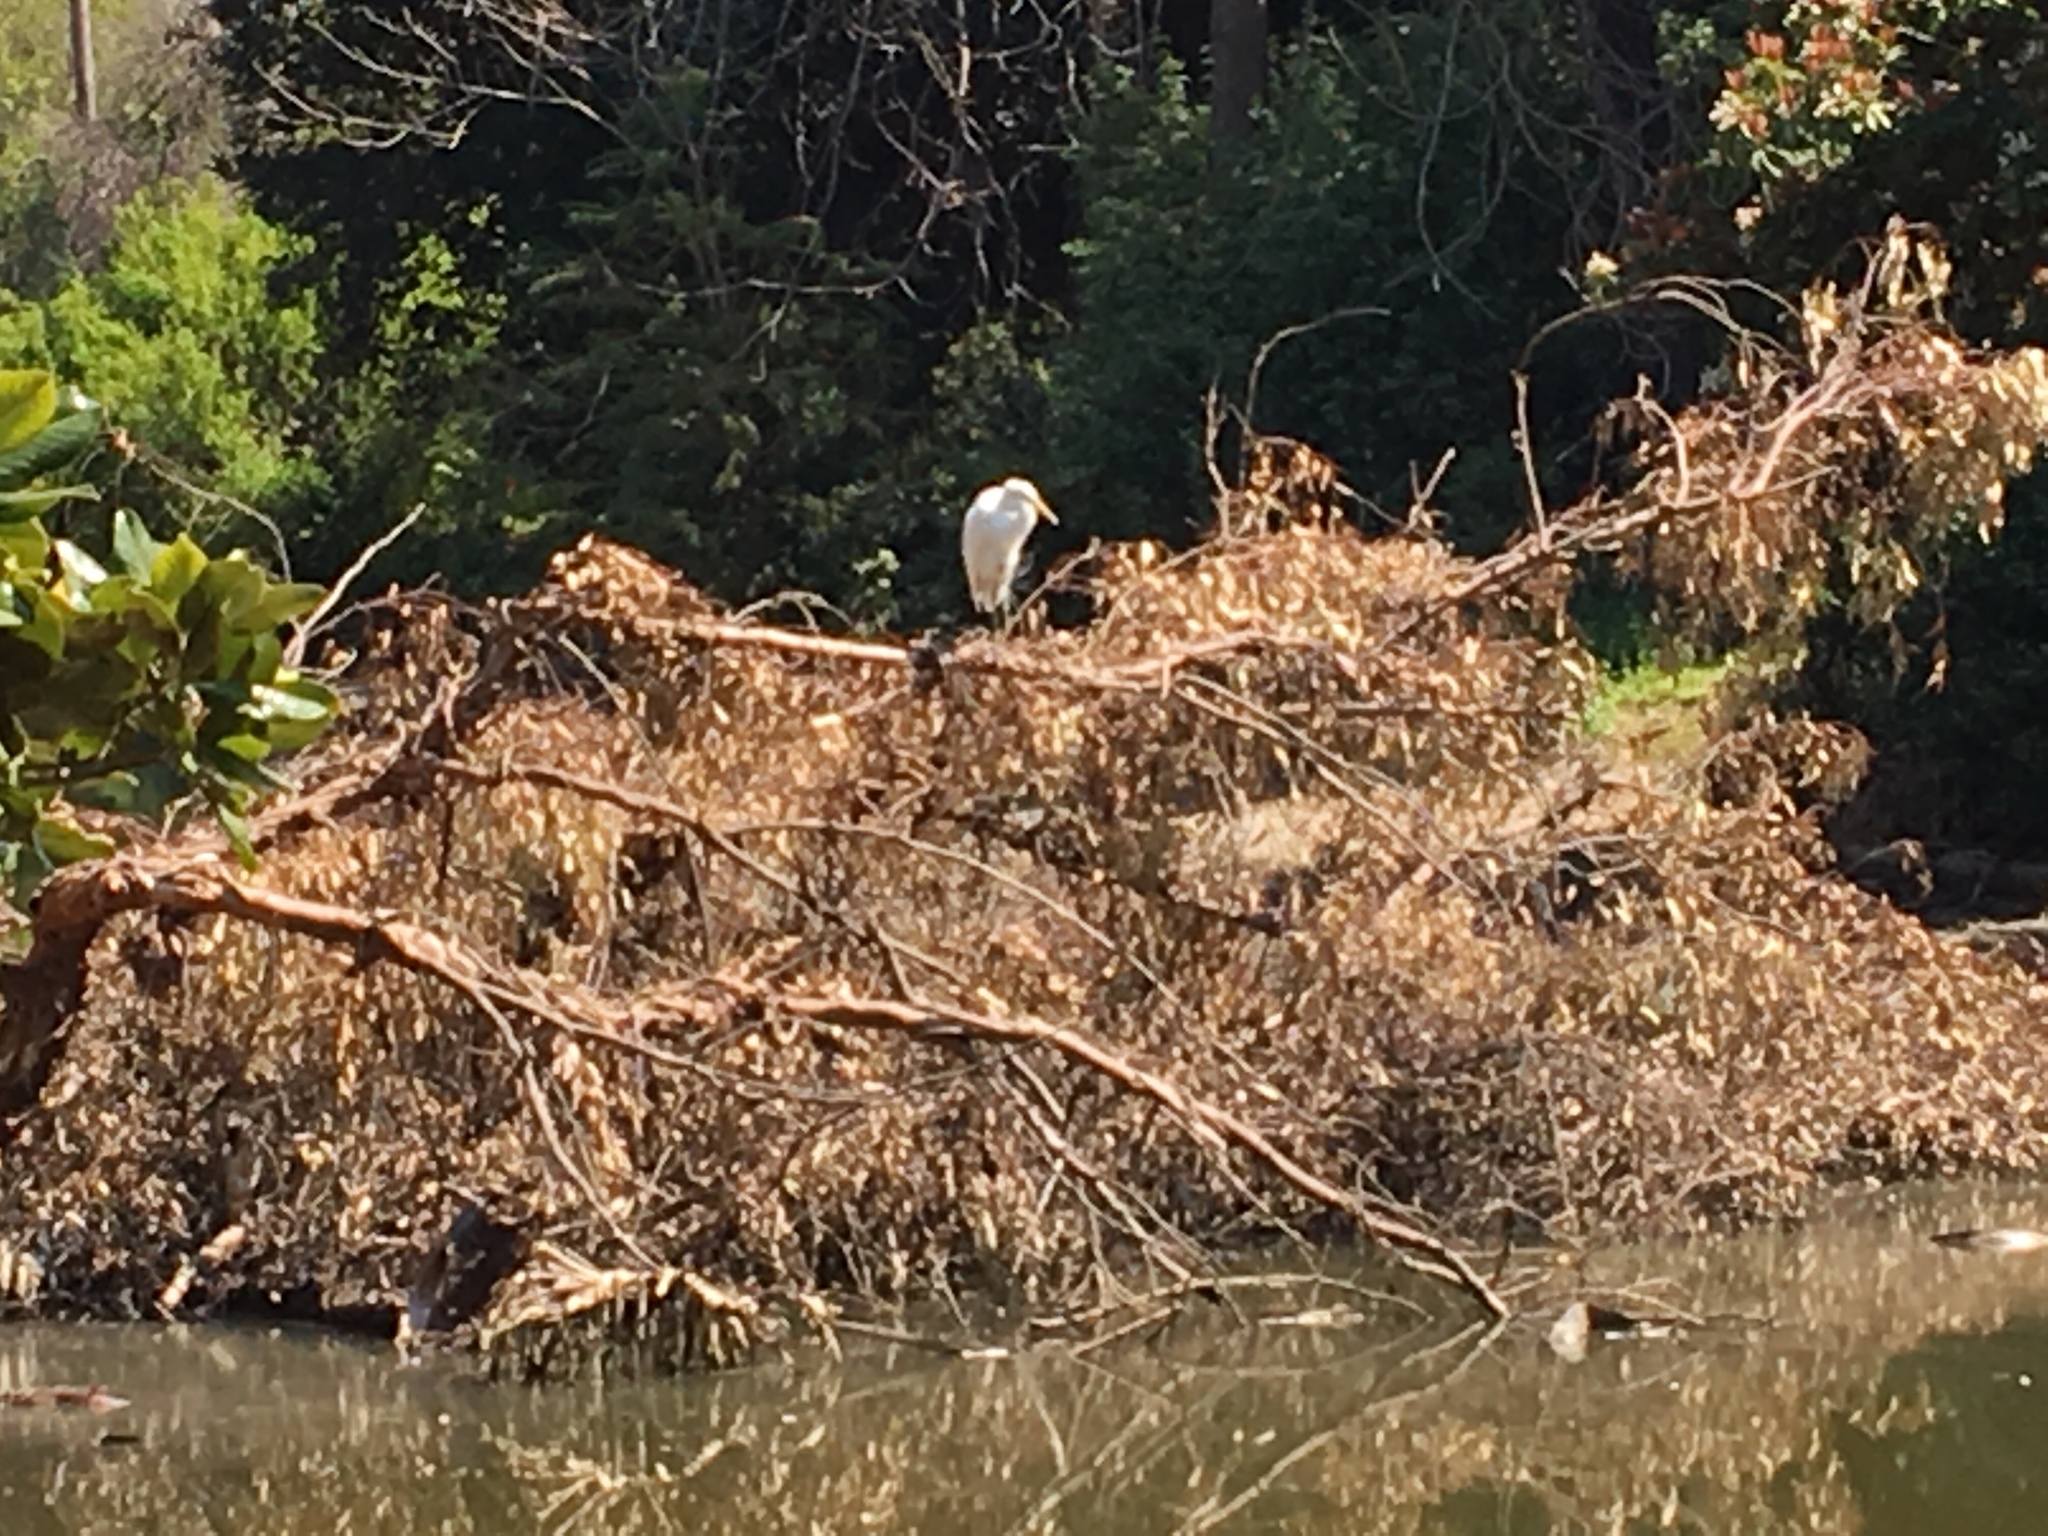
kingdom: Animalia
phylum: Chordata
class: Aves
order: Pelecaniformes
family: Ardeidae
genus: Ardea
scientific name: Ardea alba
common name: Great egret
